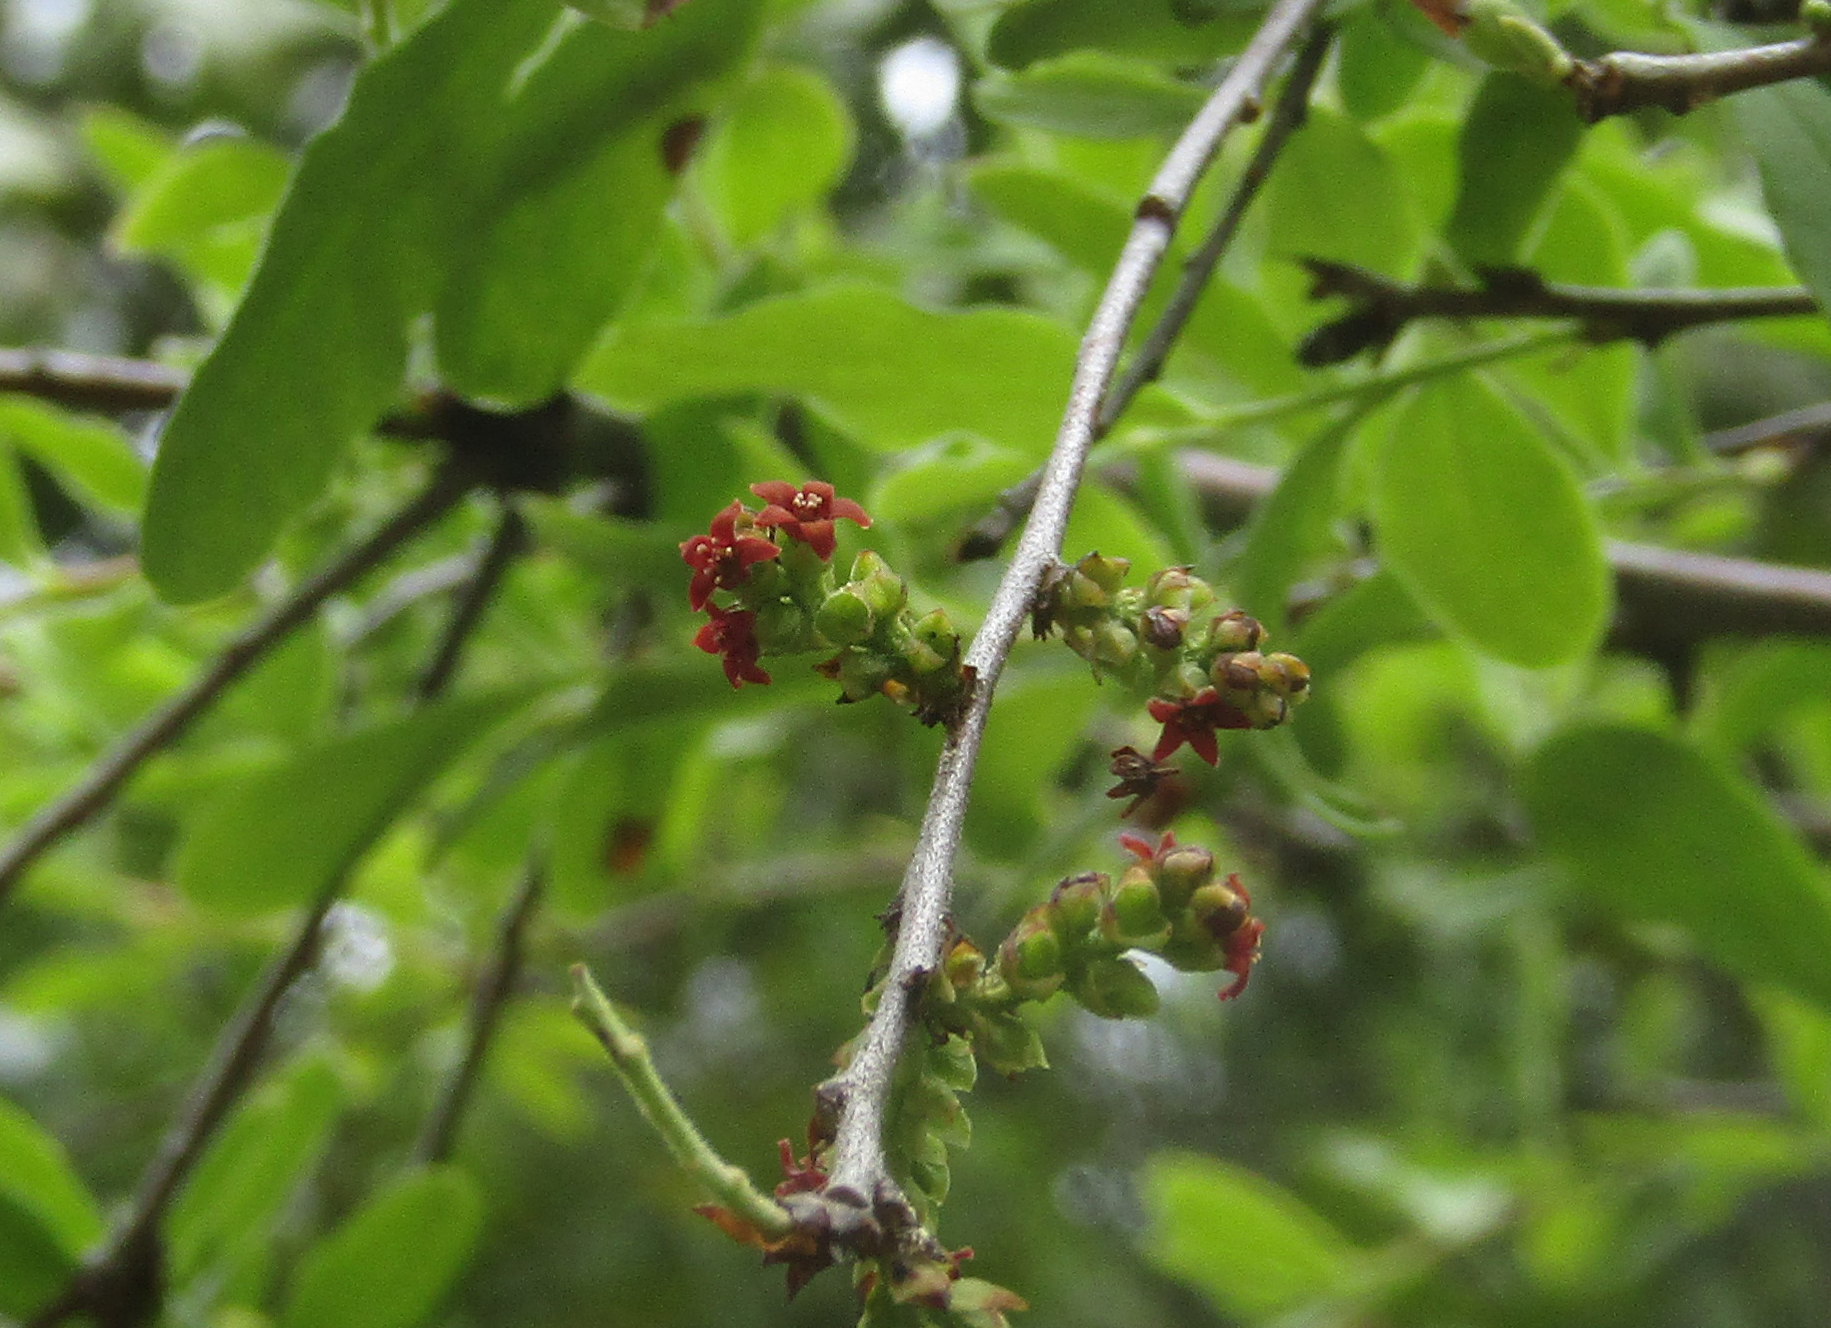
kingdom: Plantae
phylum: Tracheophyta
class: Magnoliopsida
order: Santalales
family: Santalaceae
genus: Myoschilos
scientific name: Myoschilos oblongum
